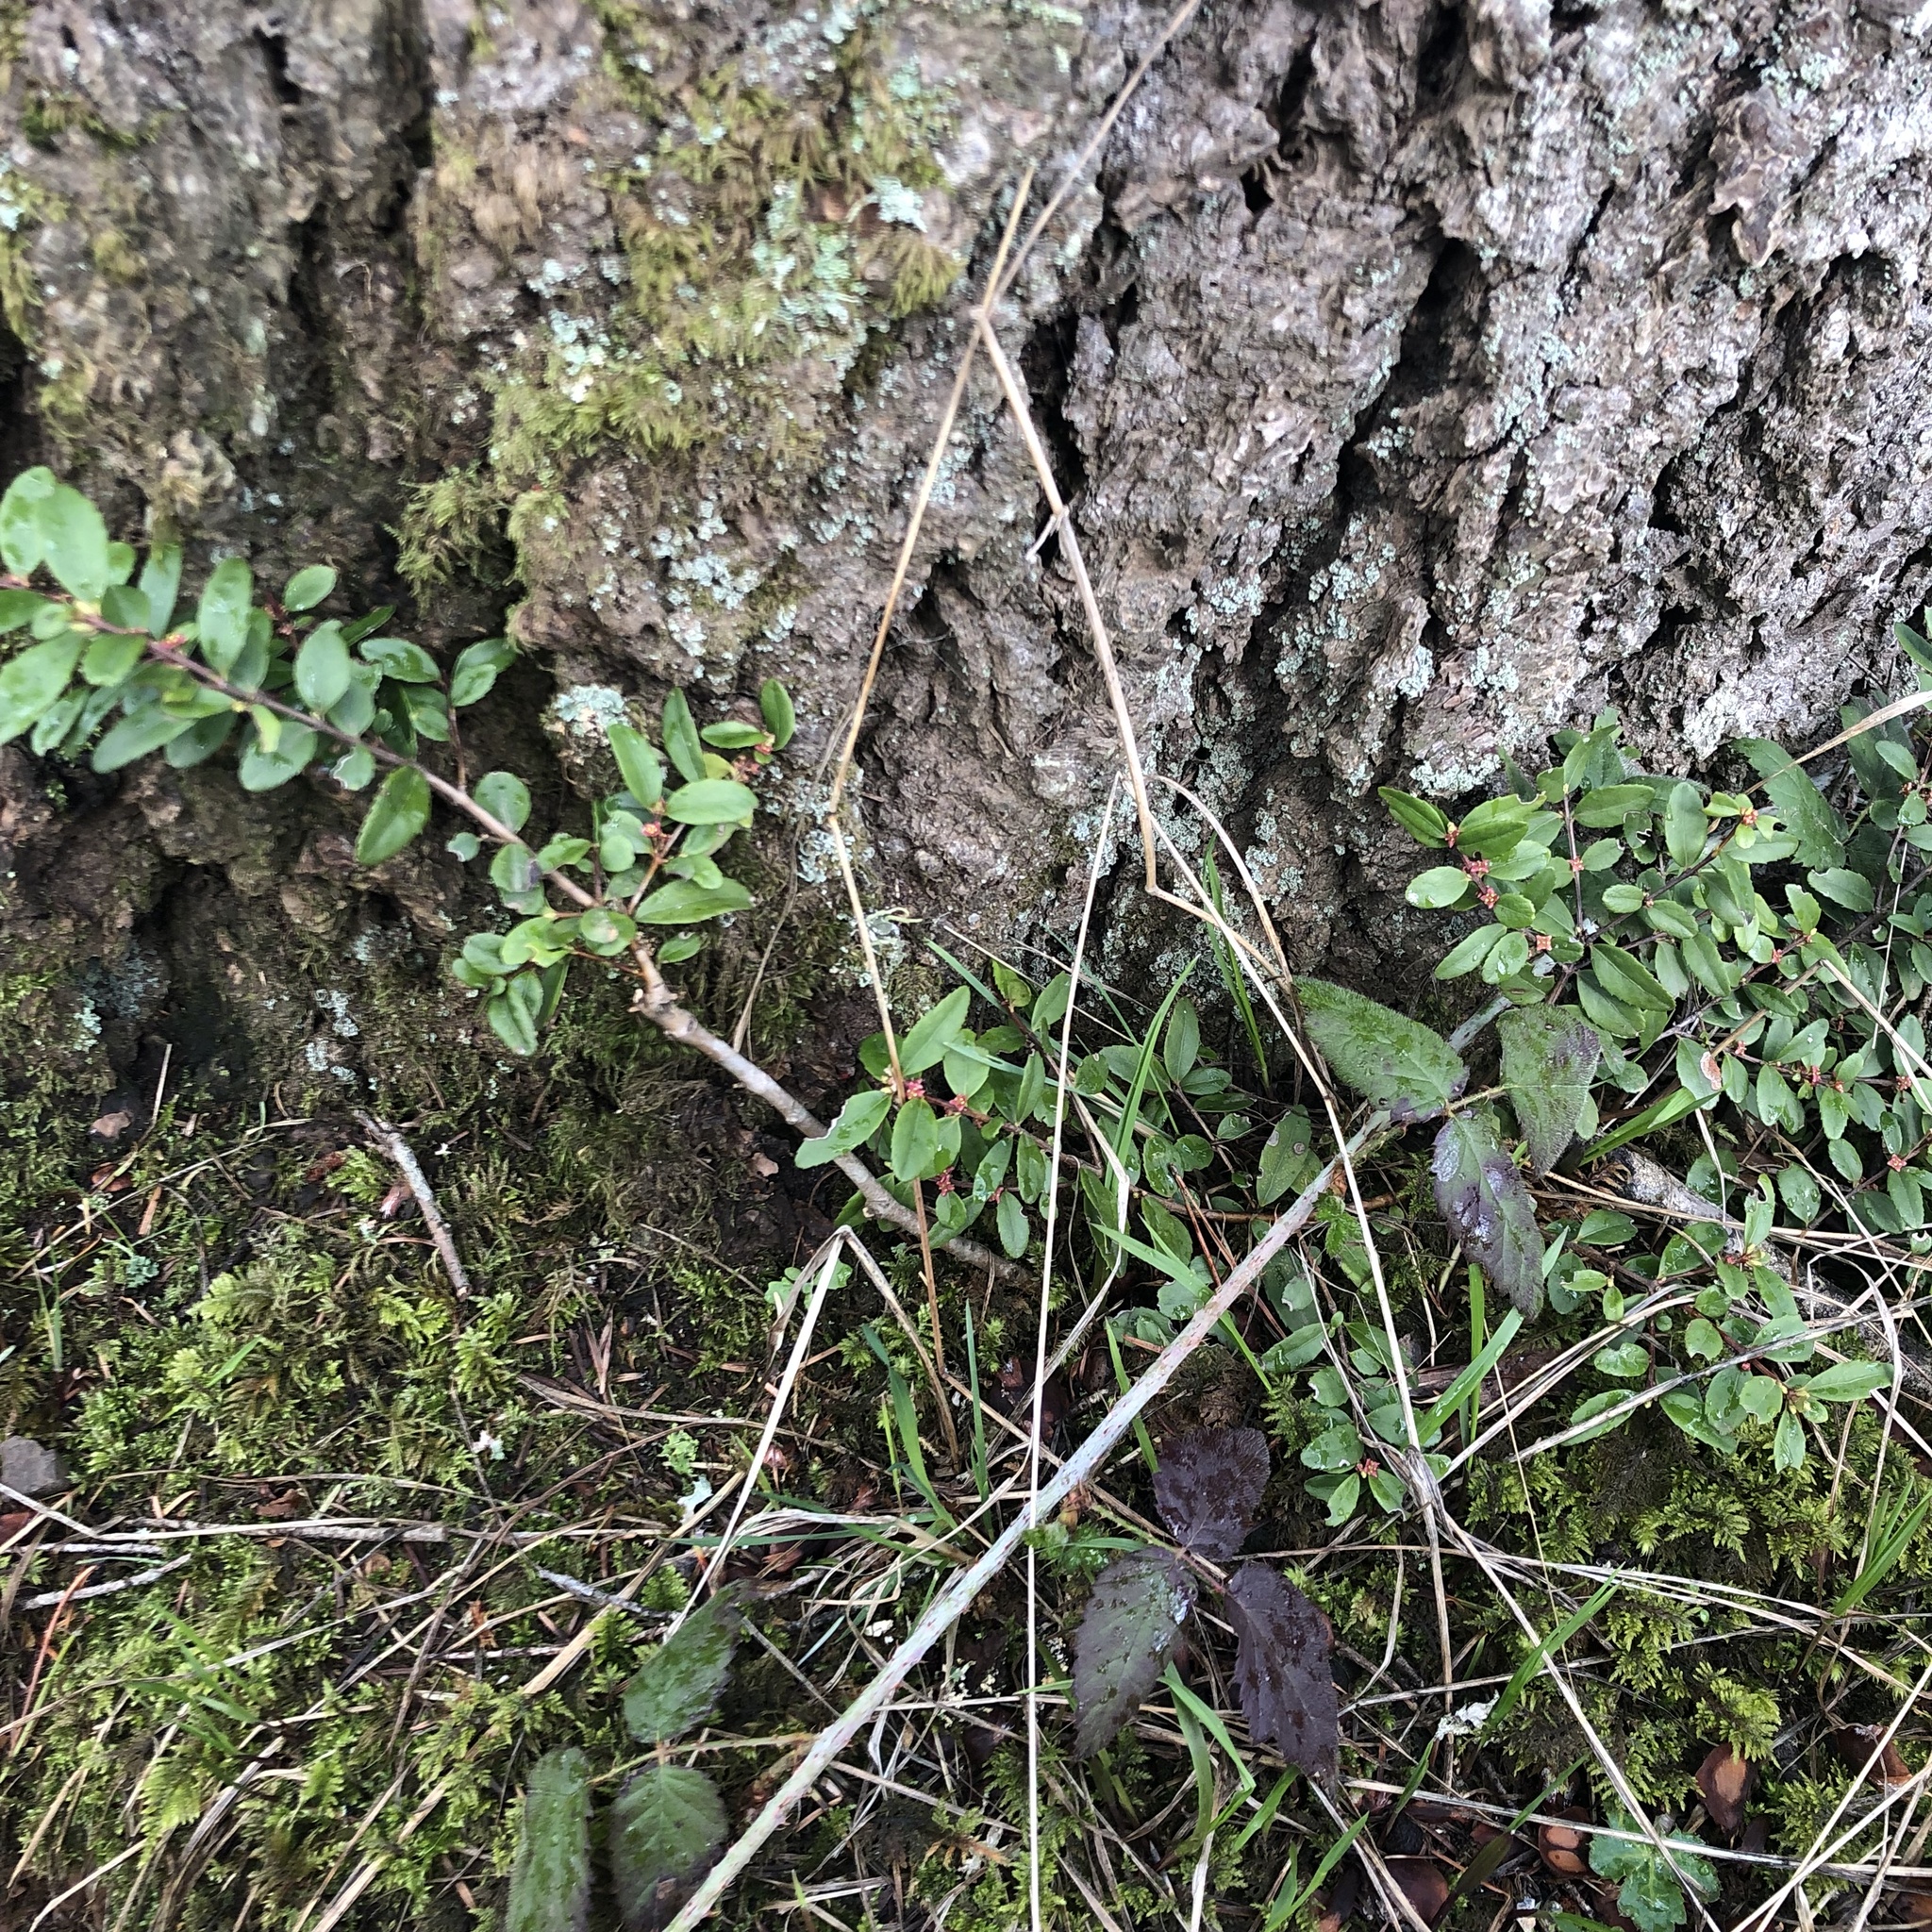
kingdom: Plantae
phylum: Tracheophyta
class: Magnoliopsida
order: Celastrales
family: Celastraceae
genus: Paxistima
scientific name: Paxistima myrsinites
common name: Mountain-lover
